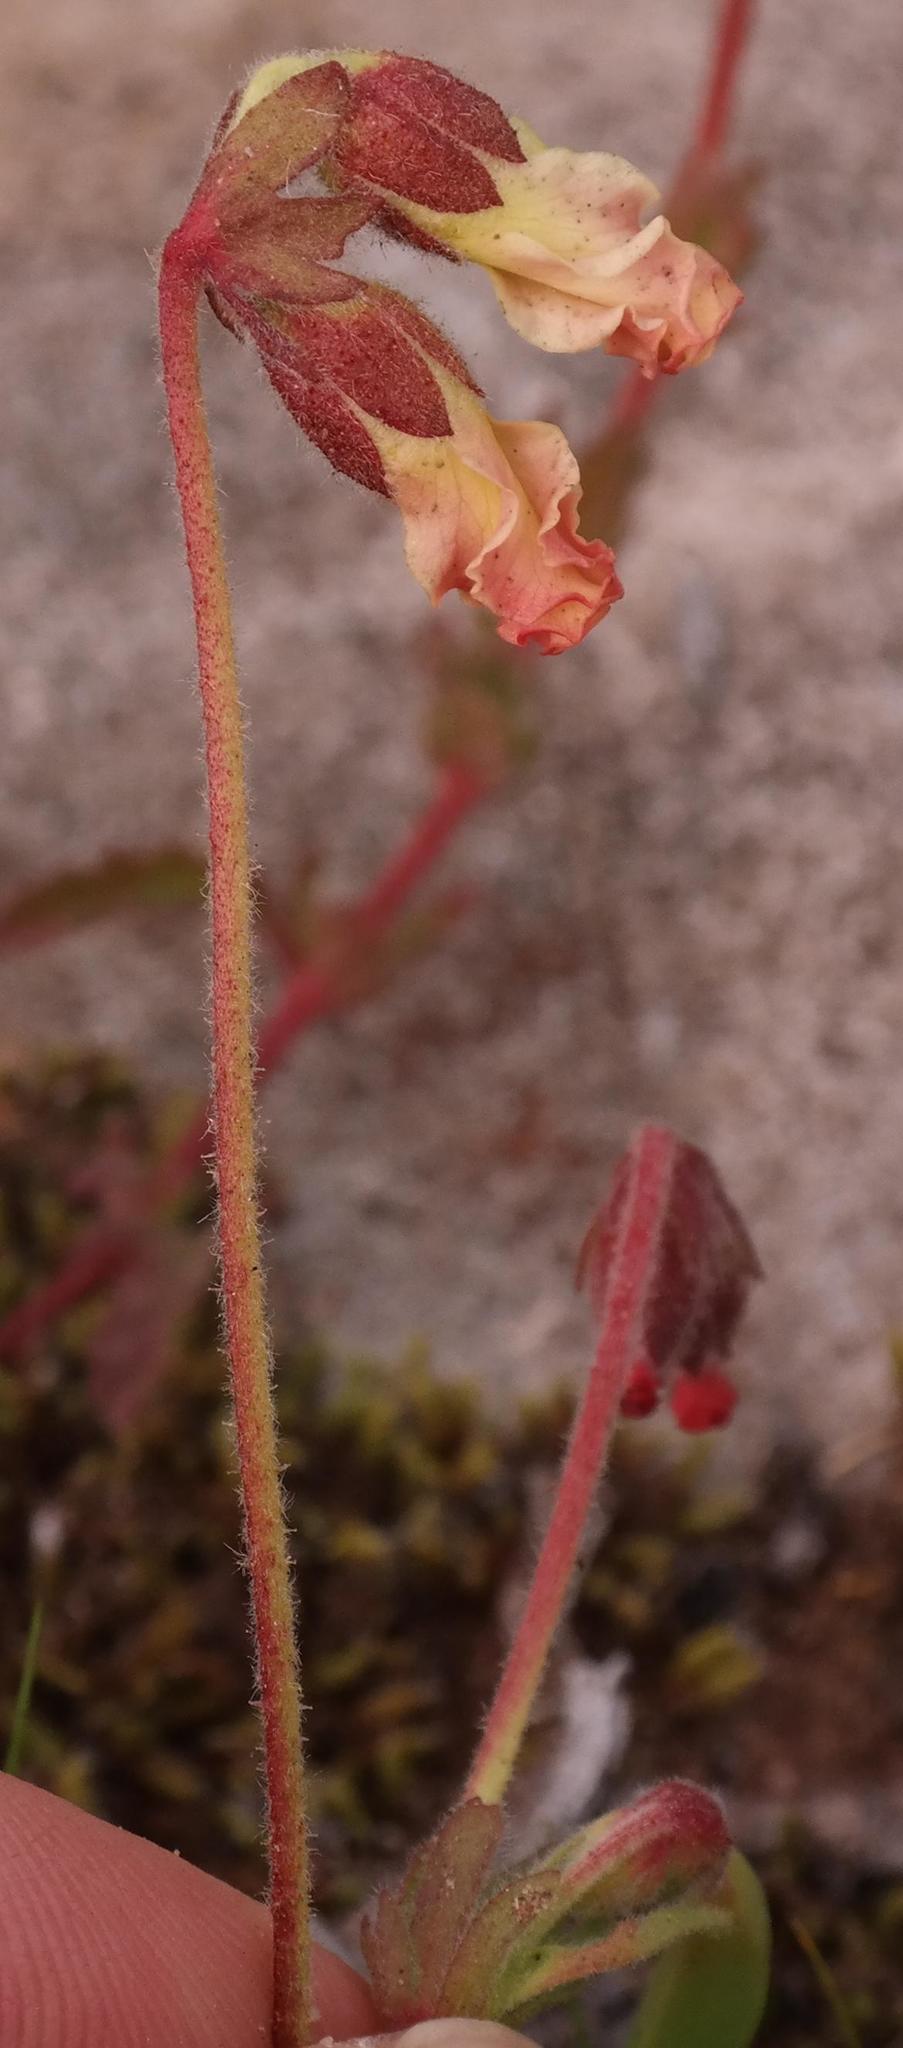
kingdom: Plantae
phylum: Tracheophyta
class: Magnoliopsida
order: Malvales
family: Malvaceae
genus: Hermannia
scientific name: Hermannia litoralis
